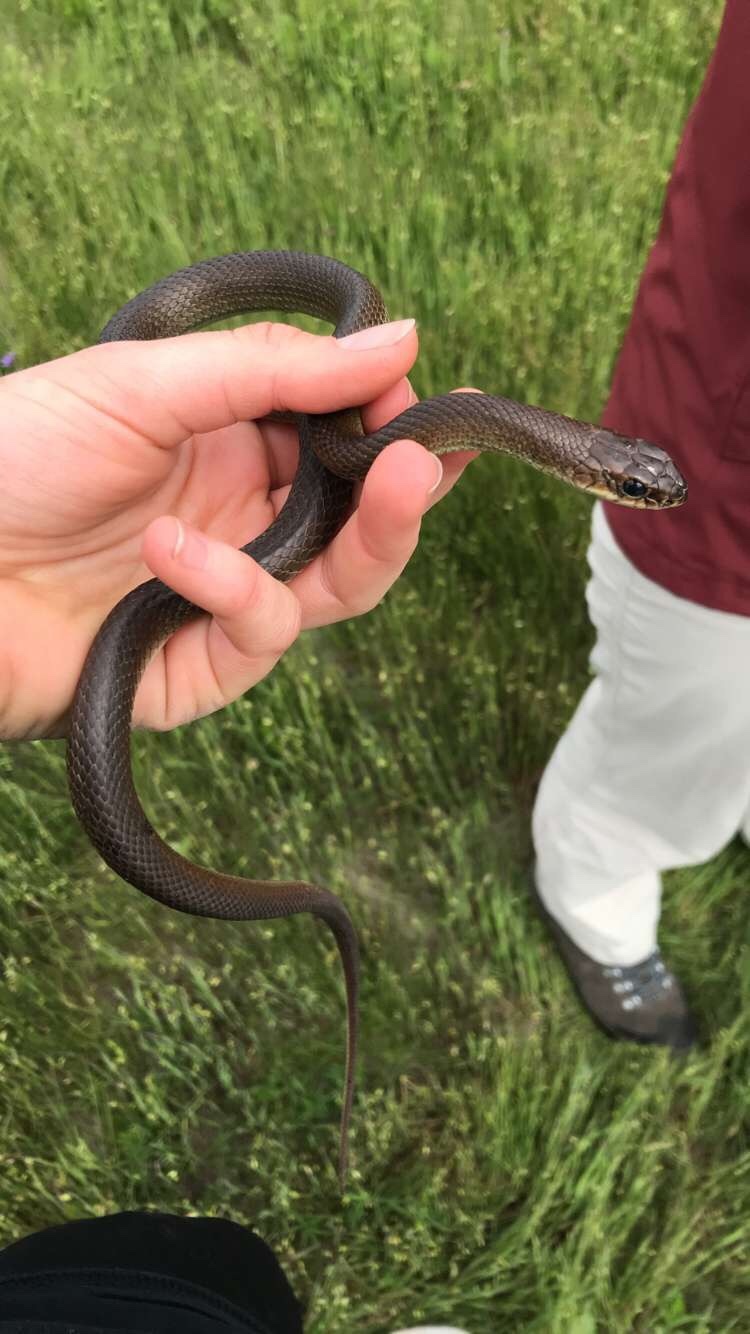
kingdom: Animalia
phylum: Chordata
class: Squamata
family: Colubridae
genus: Coluber
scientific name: Coluber constrictor
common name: Eastern racer
